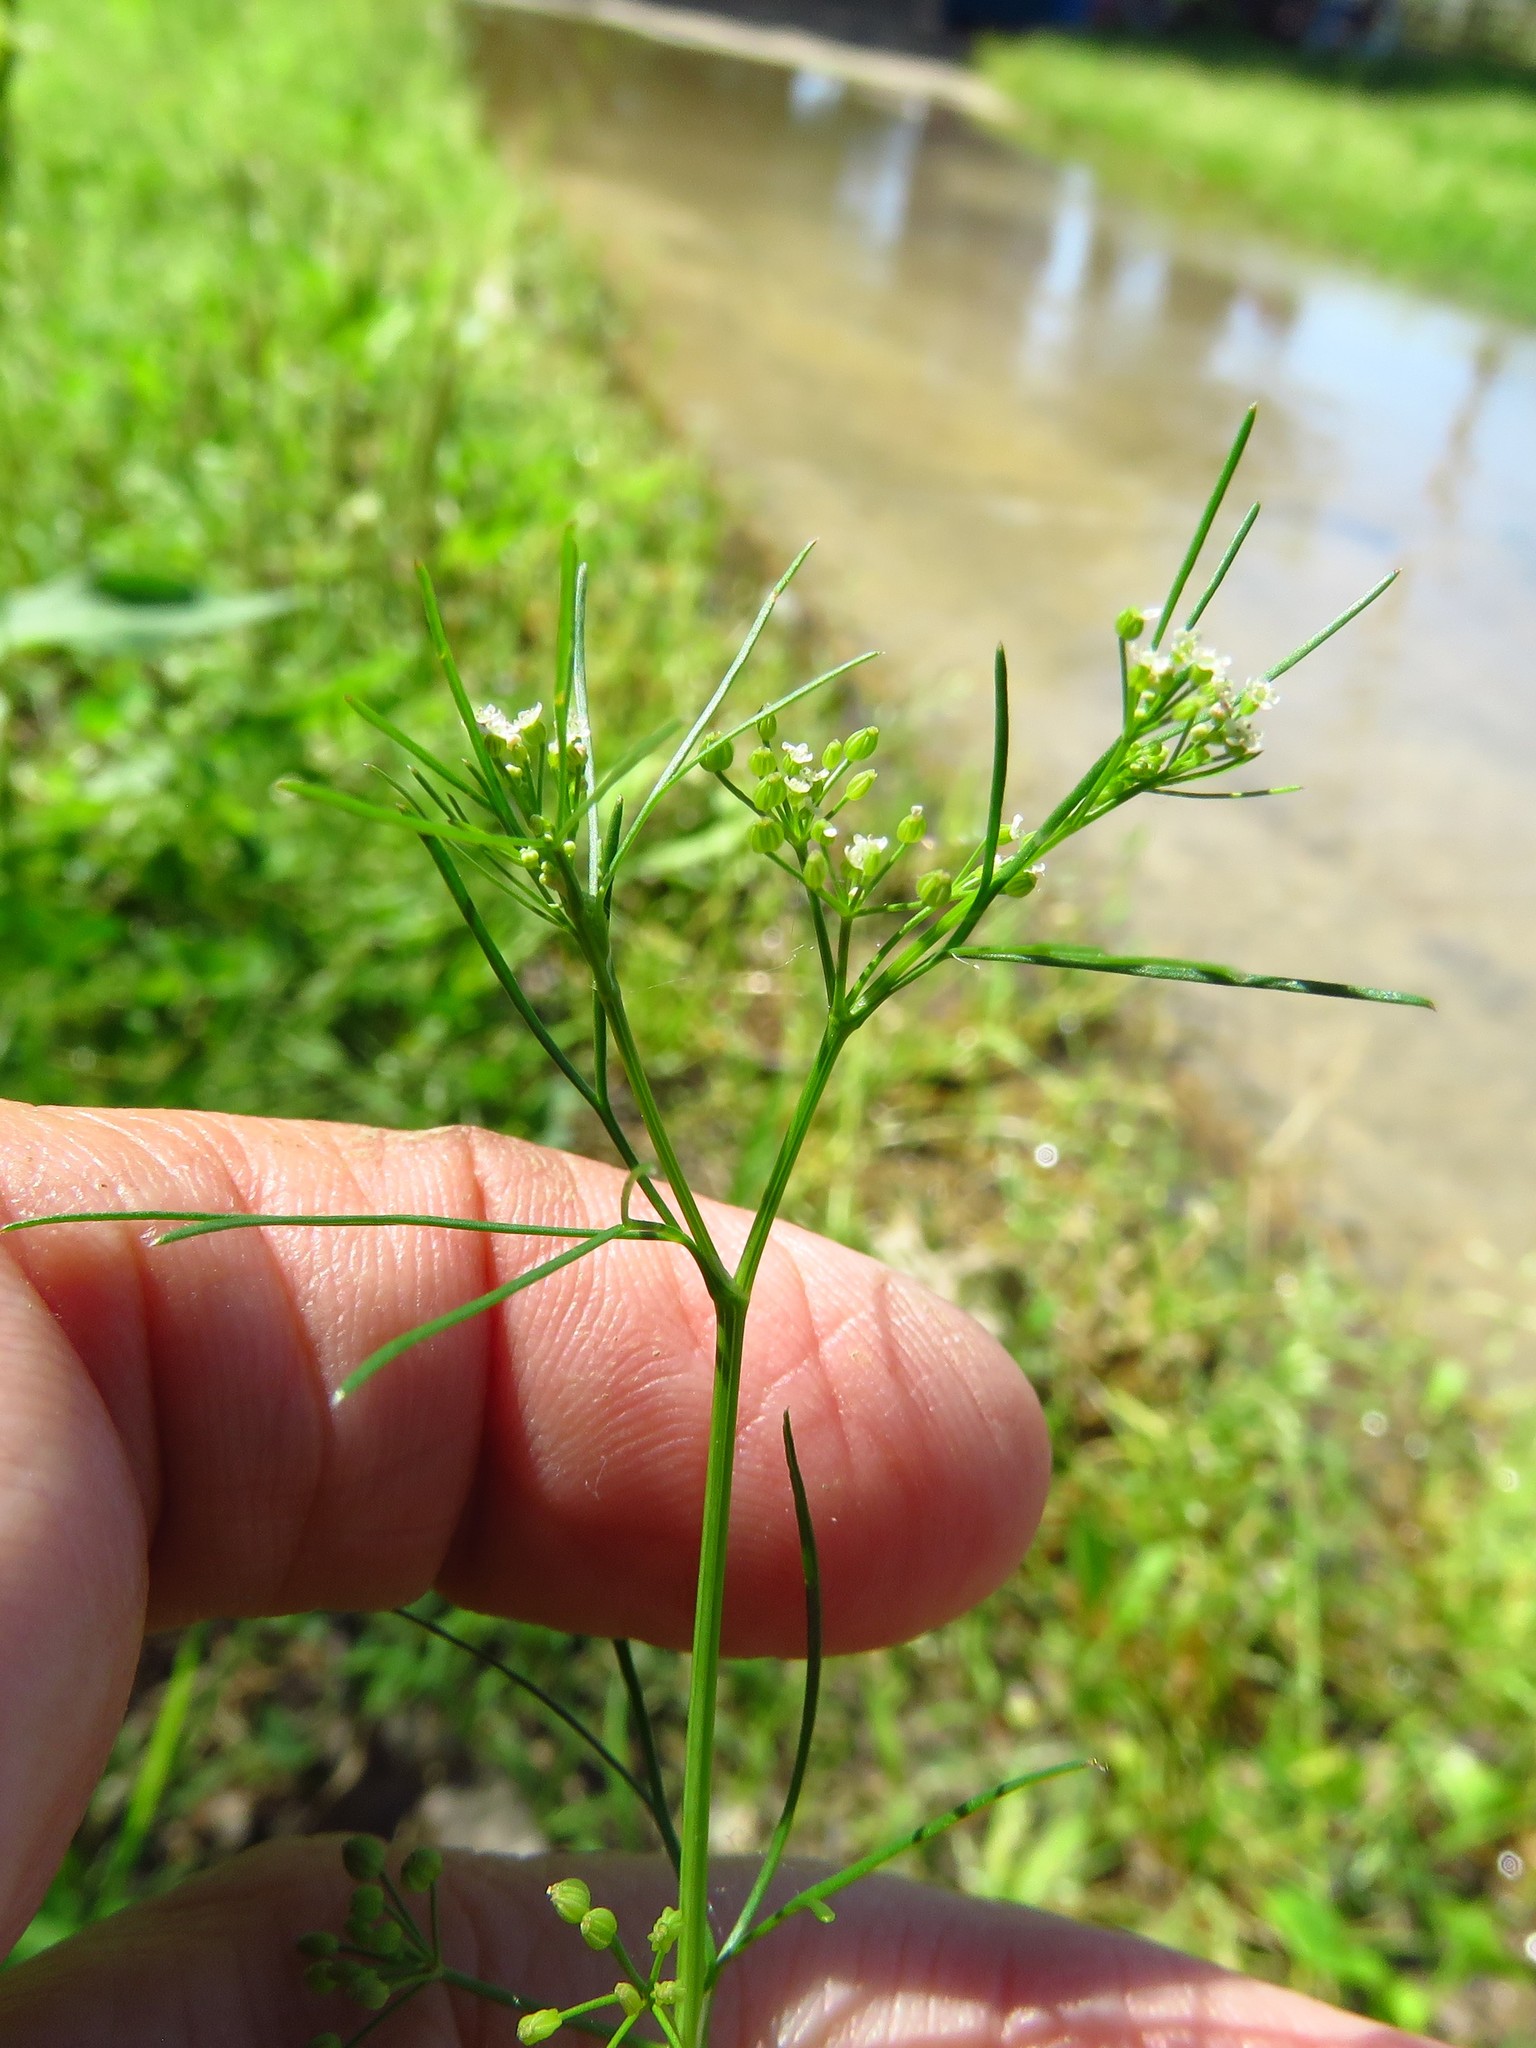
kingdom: Plantae
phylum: Tracheophyta
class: Magnoliopsida
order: Apiales
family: Apiaceae
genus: Cyclospermum
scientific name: Cyclospermum leptophyllum
